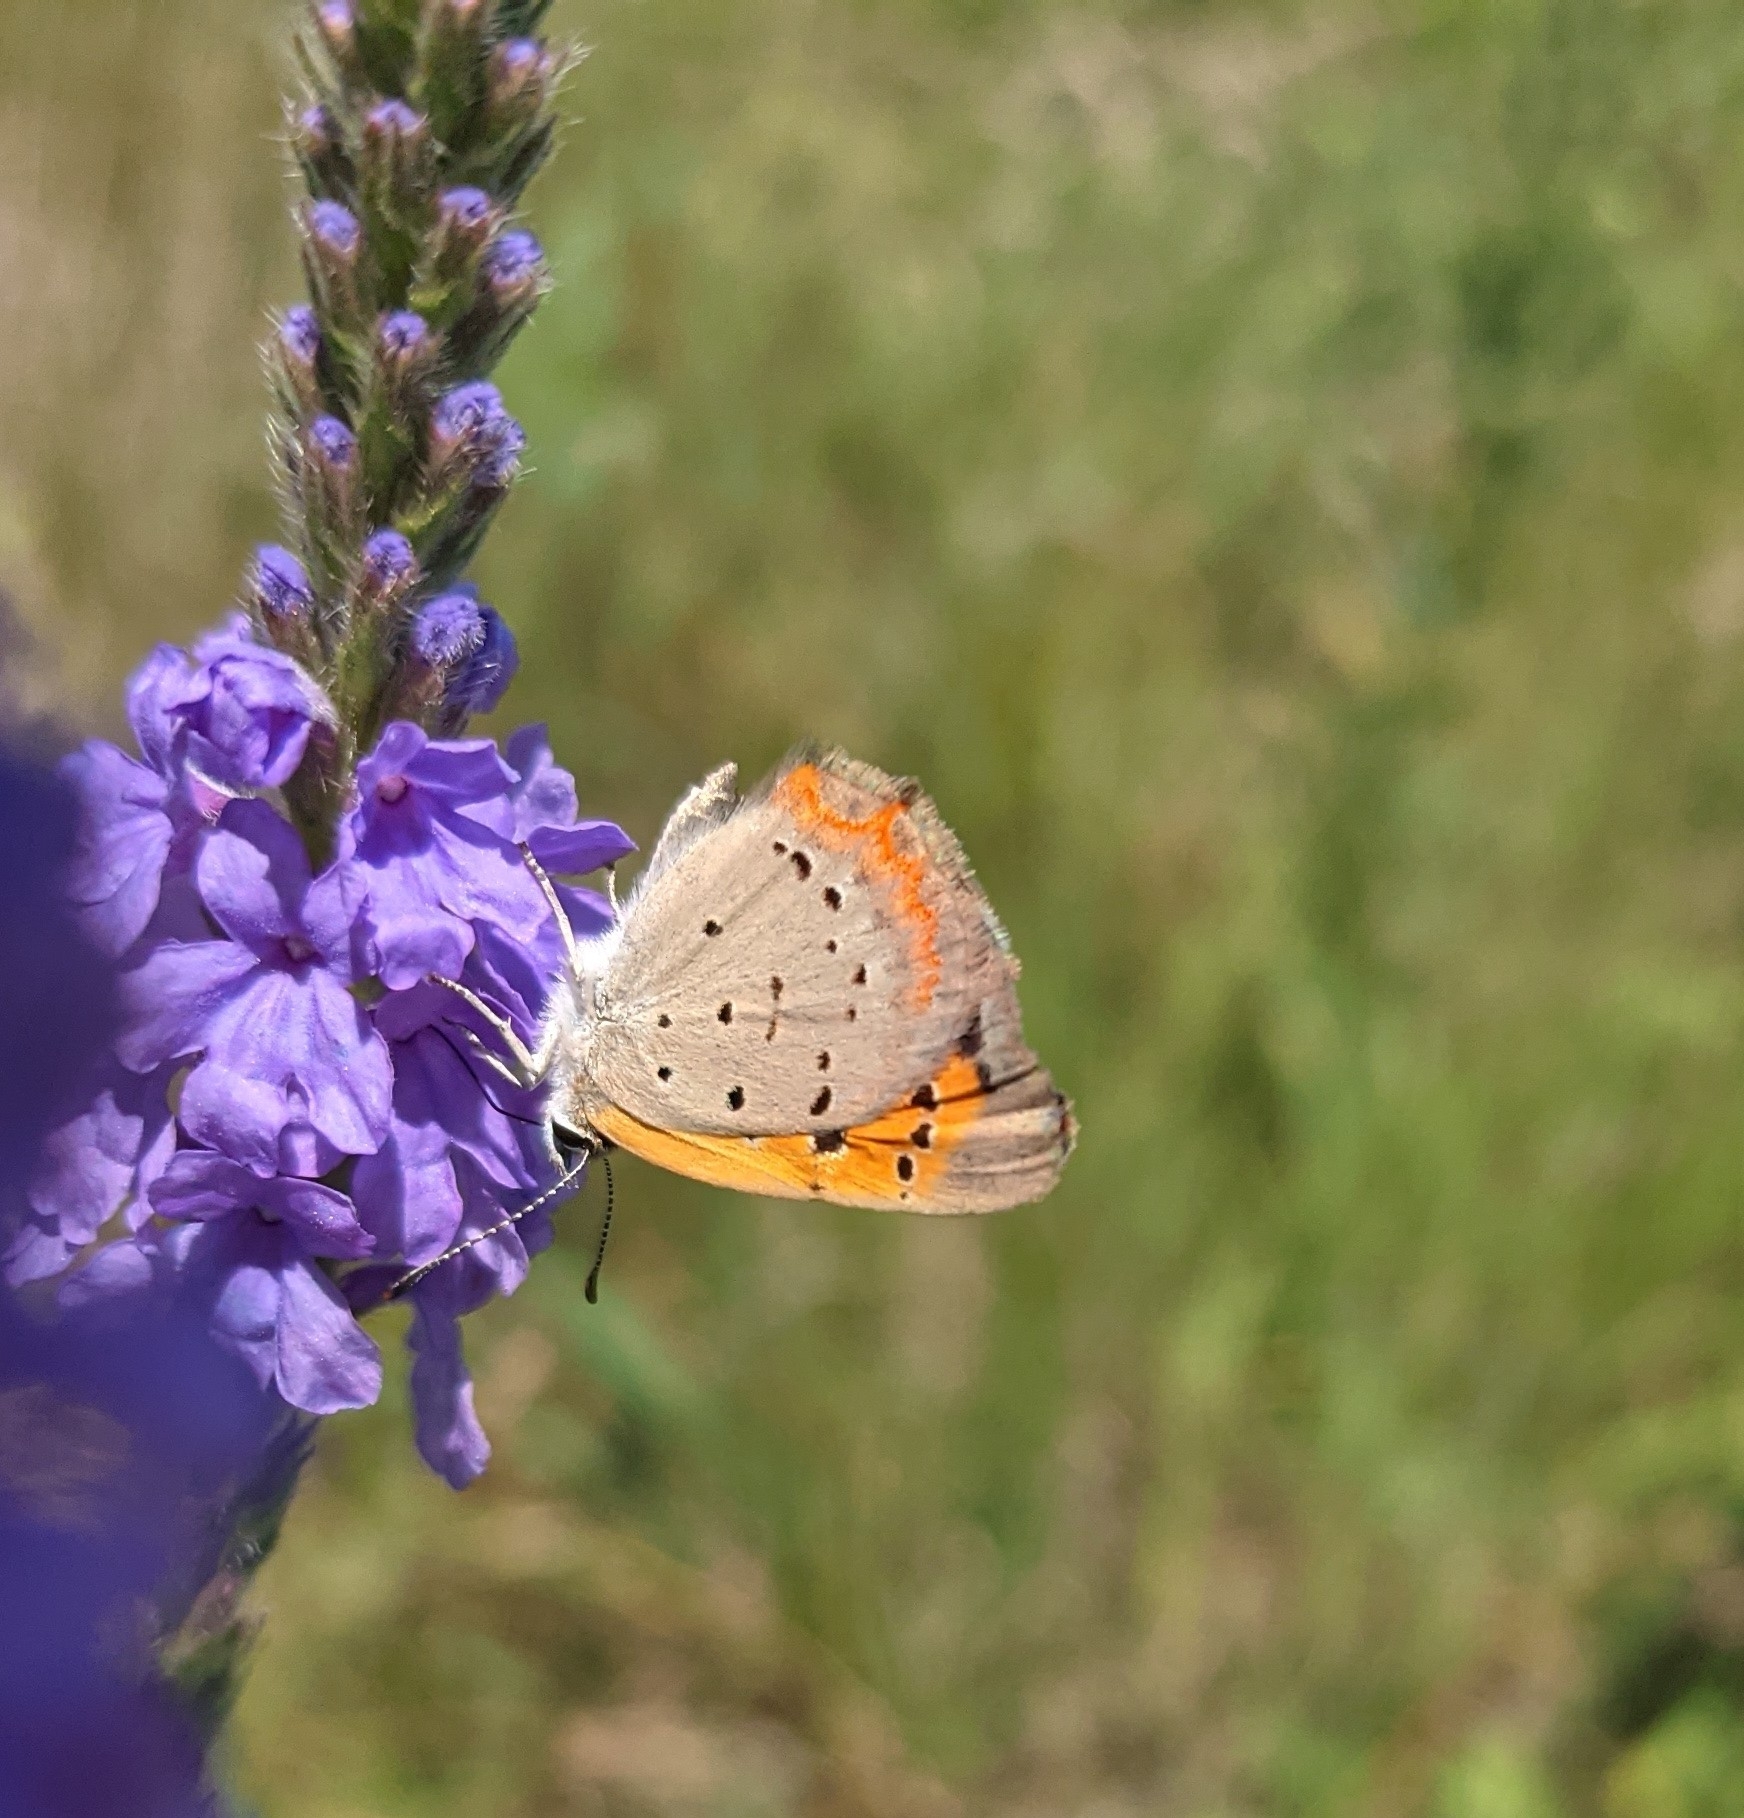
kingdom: Animalia
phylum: Arthropoda
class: Insecta
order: Lepidoptera
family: Lycaenidae
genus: Lycaena
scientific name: Lycaena hypophlaeas
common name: American copper
